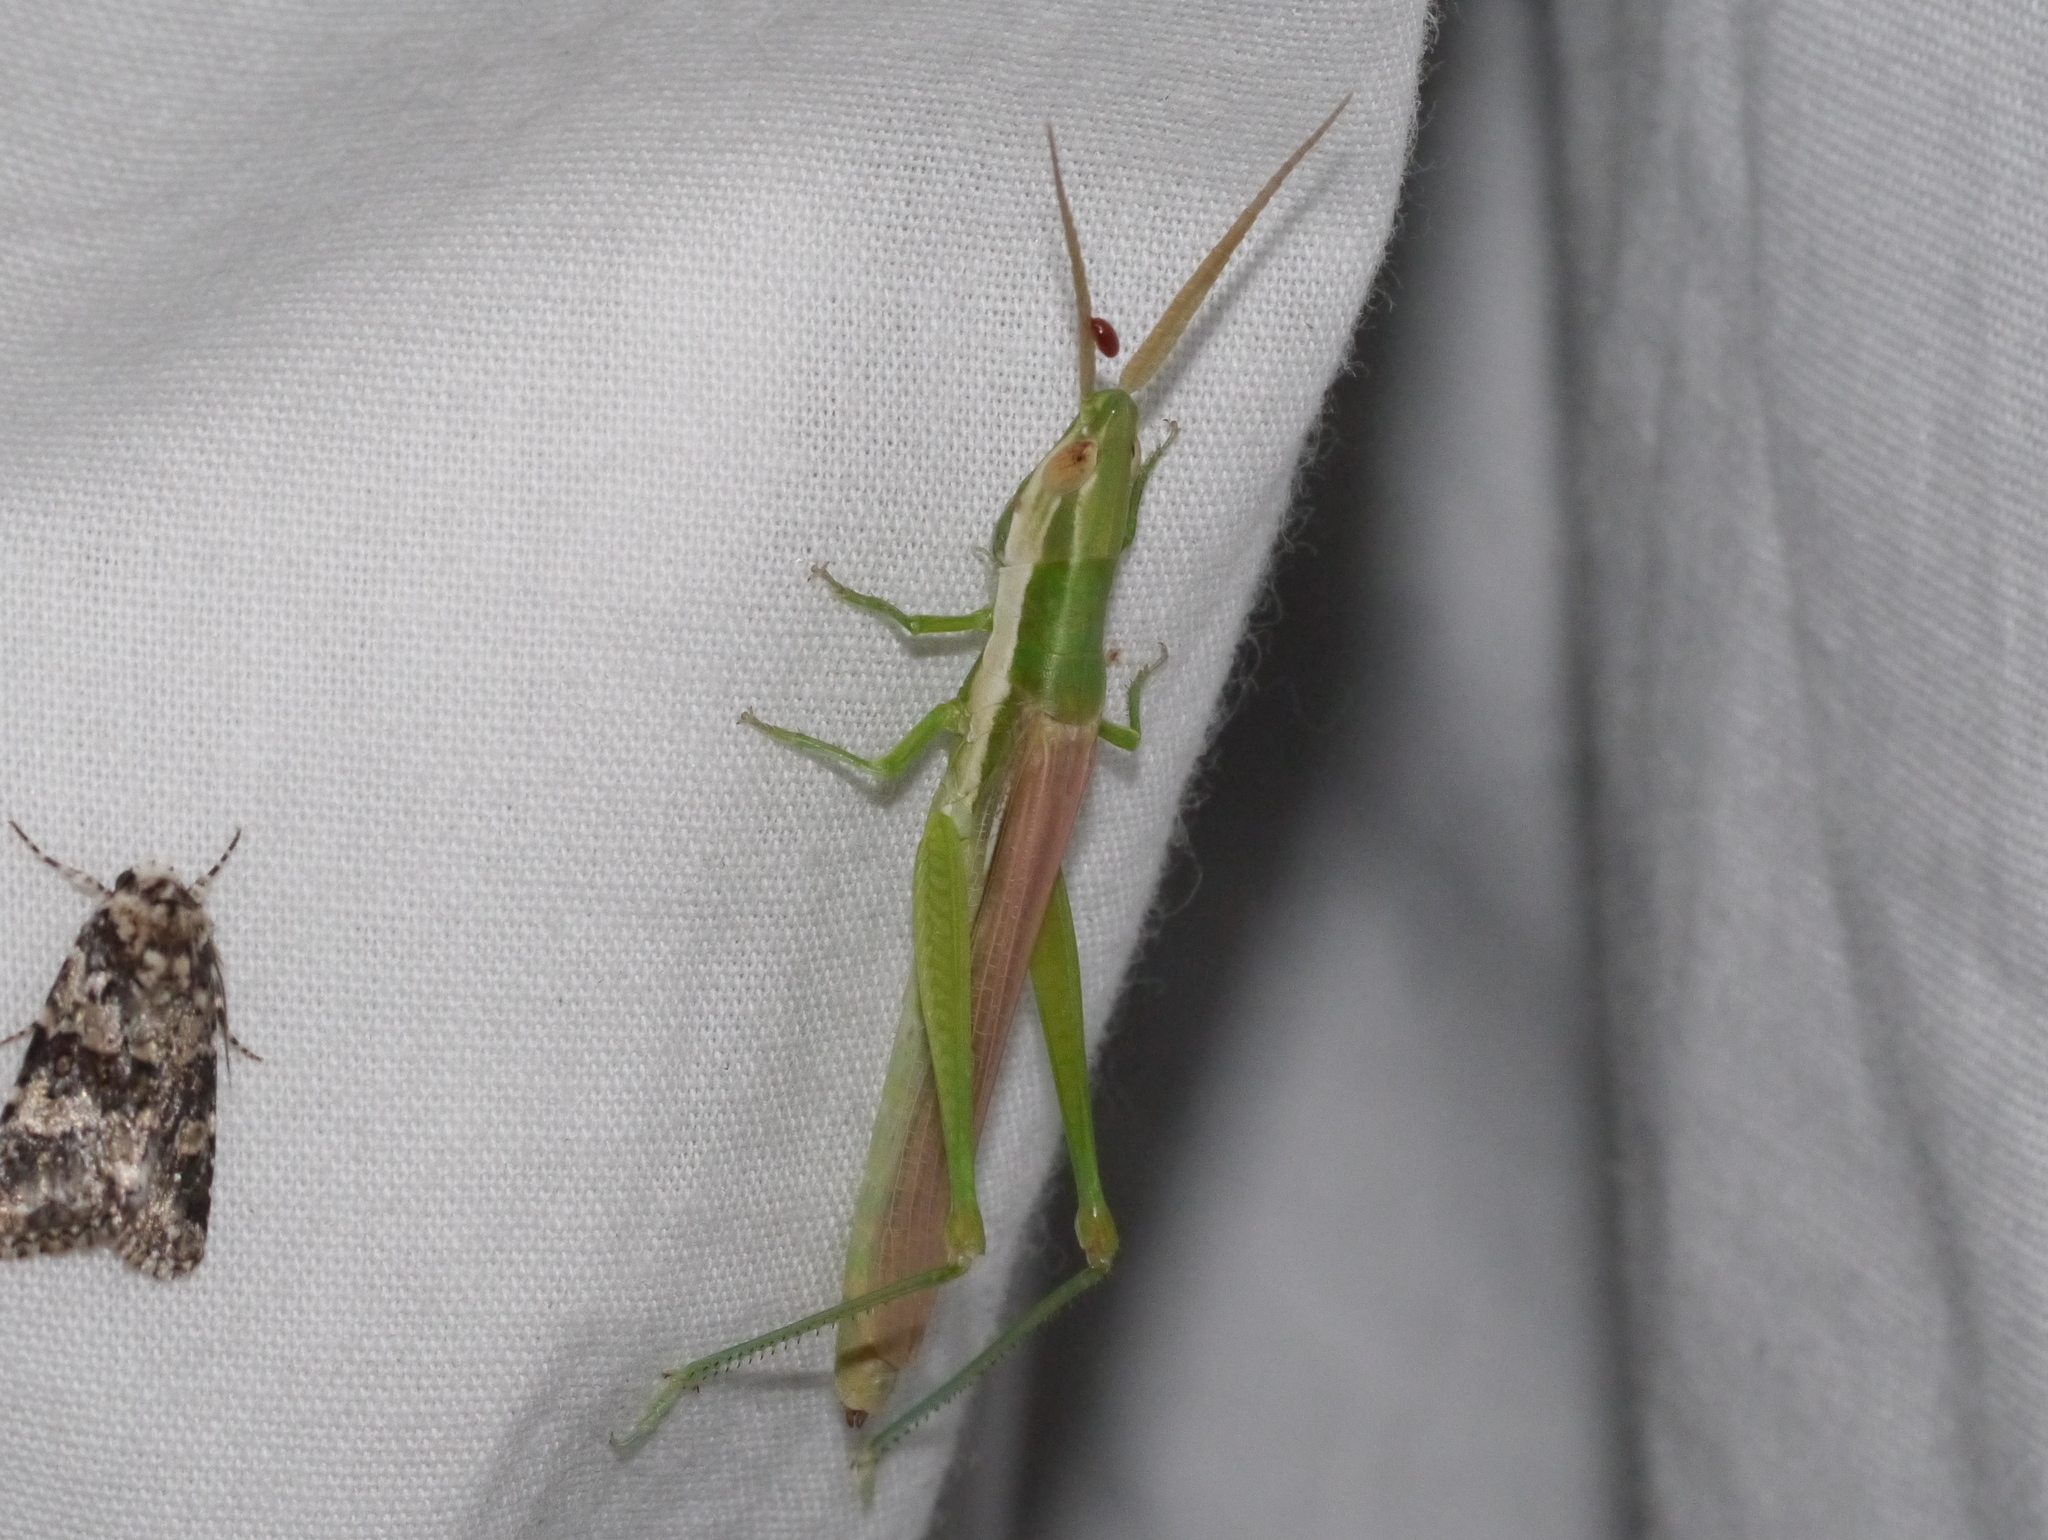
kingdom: Animalia
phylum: Arthropoda
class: Insecta
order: Orthoptera
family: Acrididae
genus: Paropomala
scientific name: Paropomala pallida
